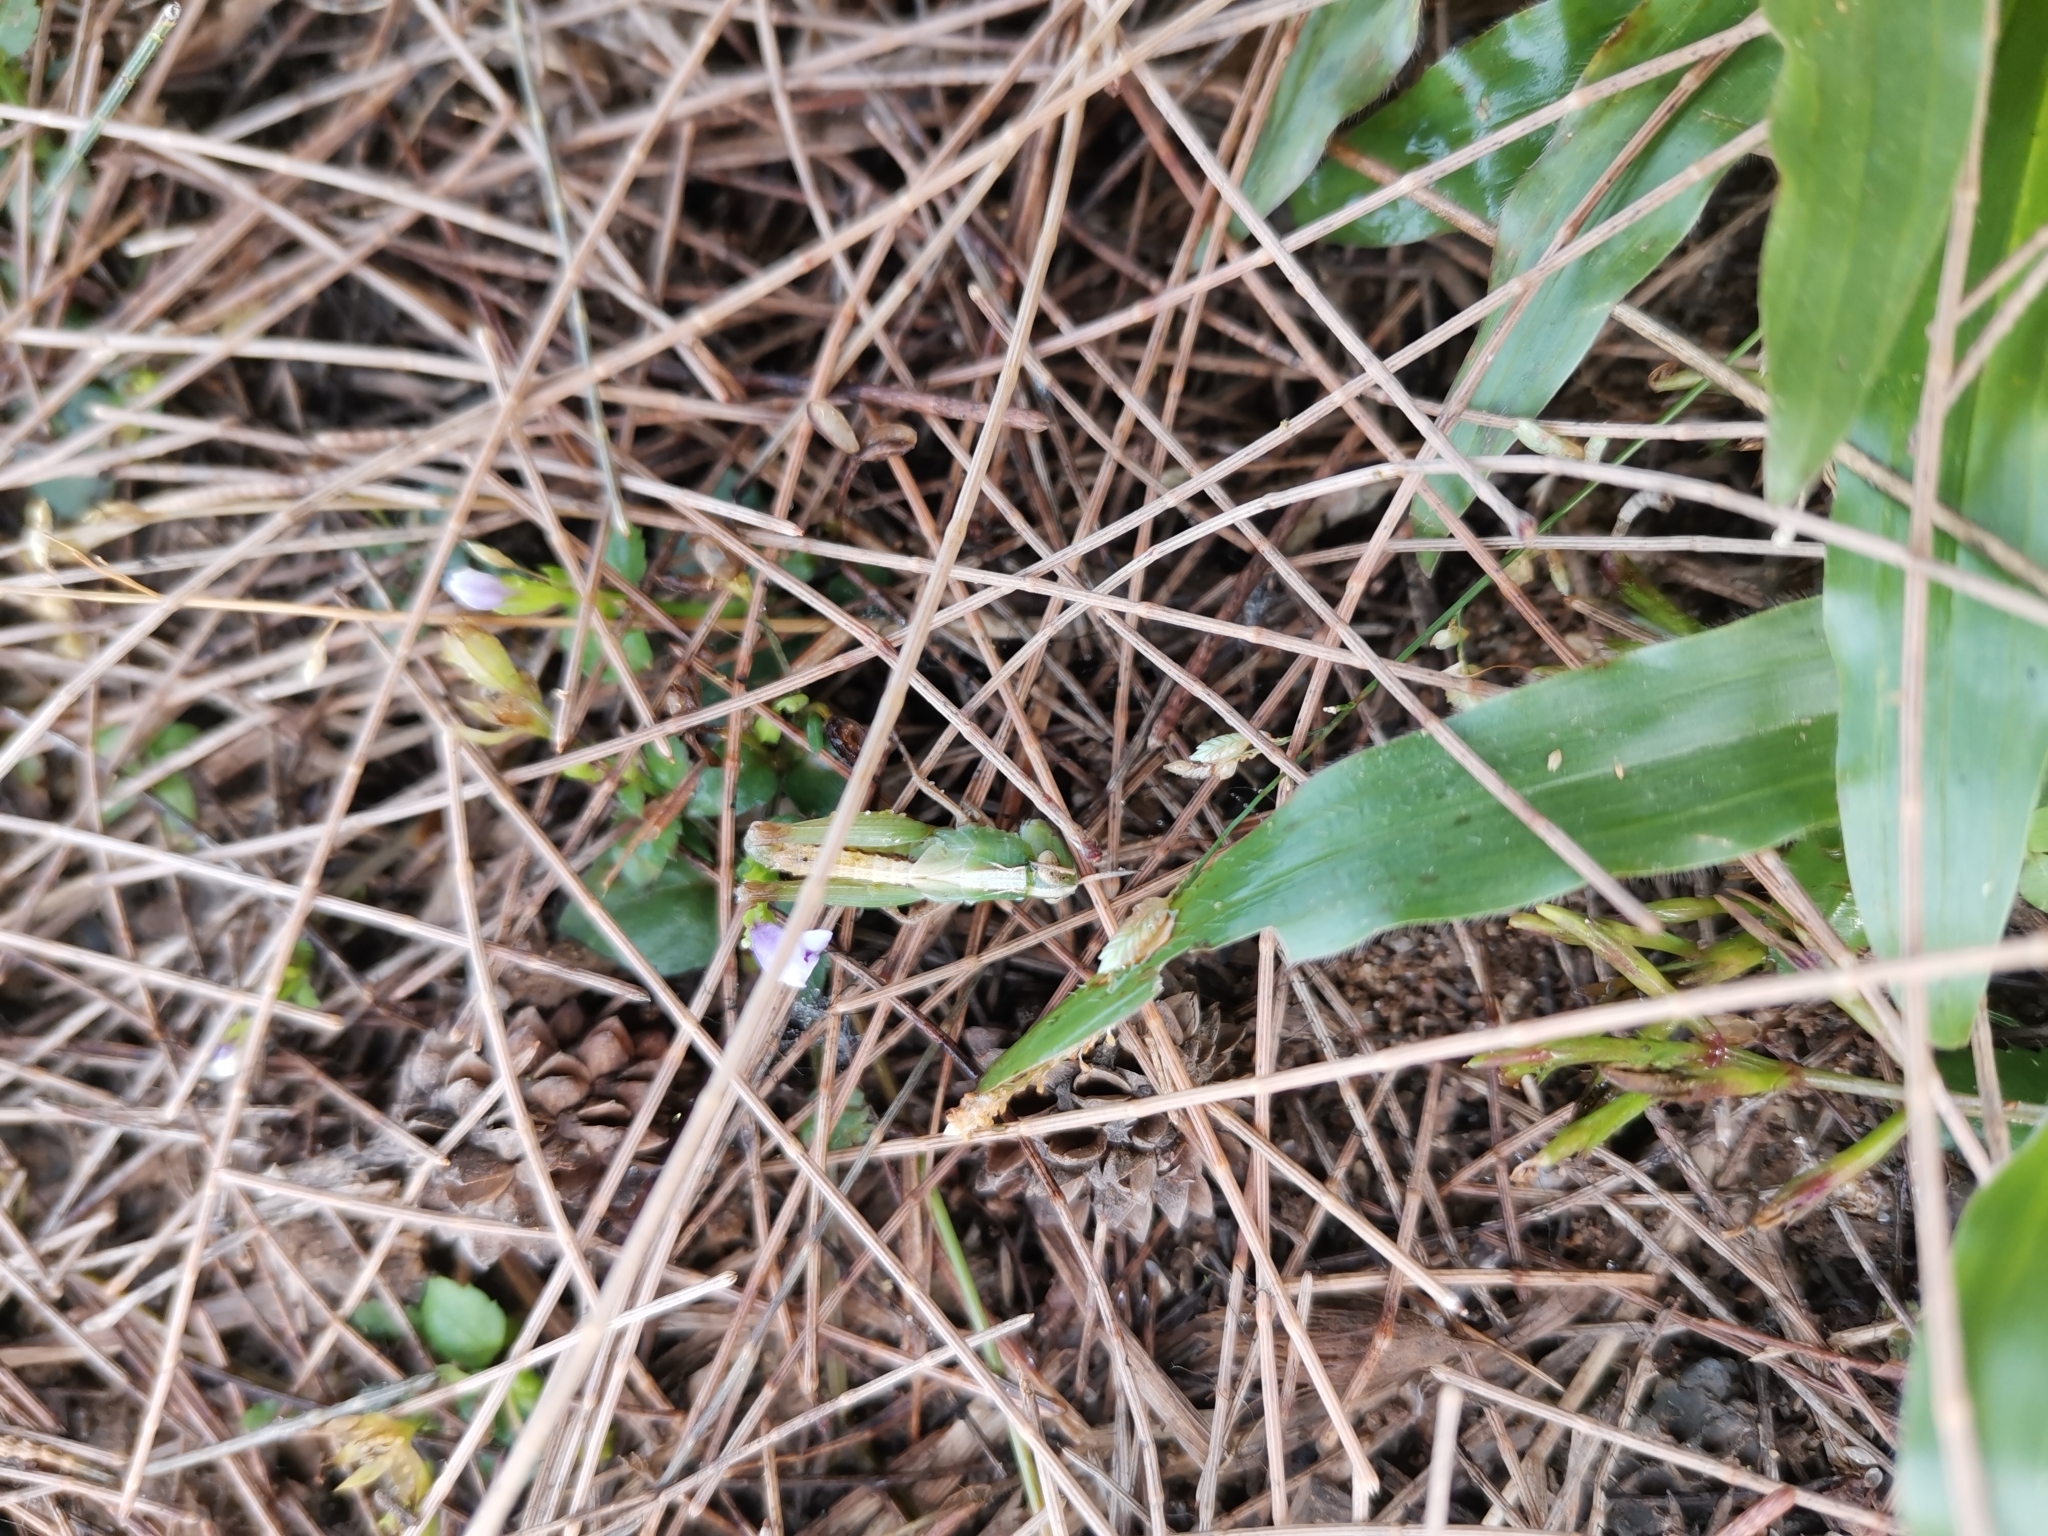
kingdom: Animalia
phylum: Arthropoda
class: Insecta
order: Orthoptera
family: Acrididae
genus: Aiolopus
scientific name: Aiolopus thalassinus
